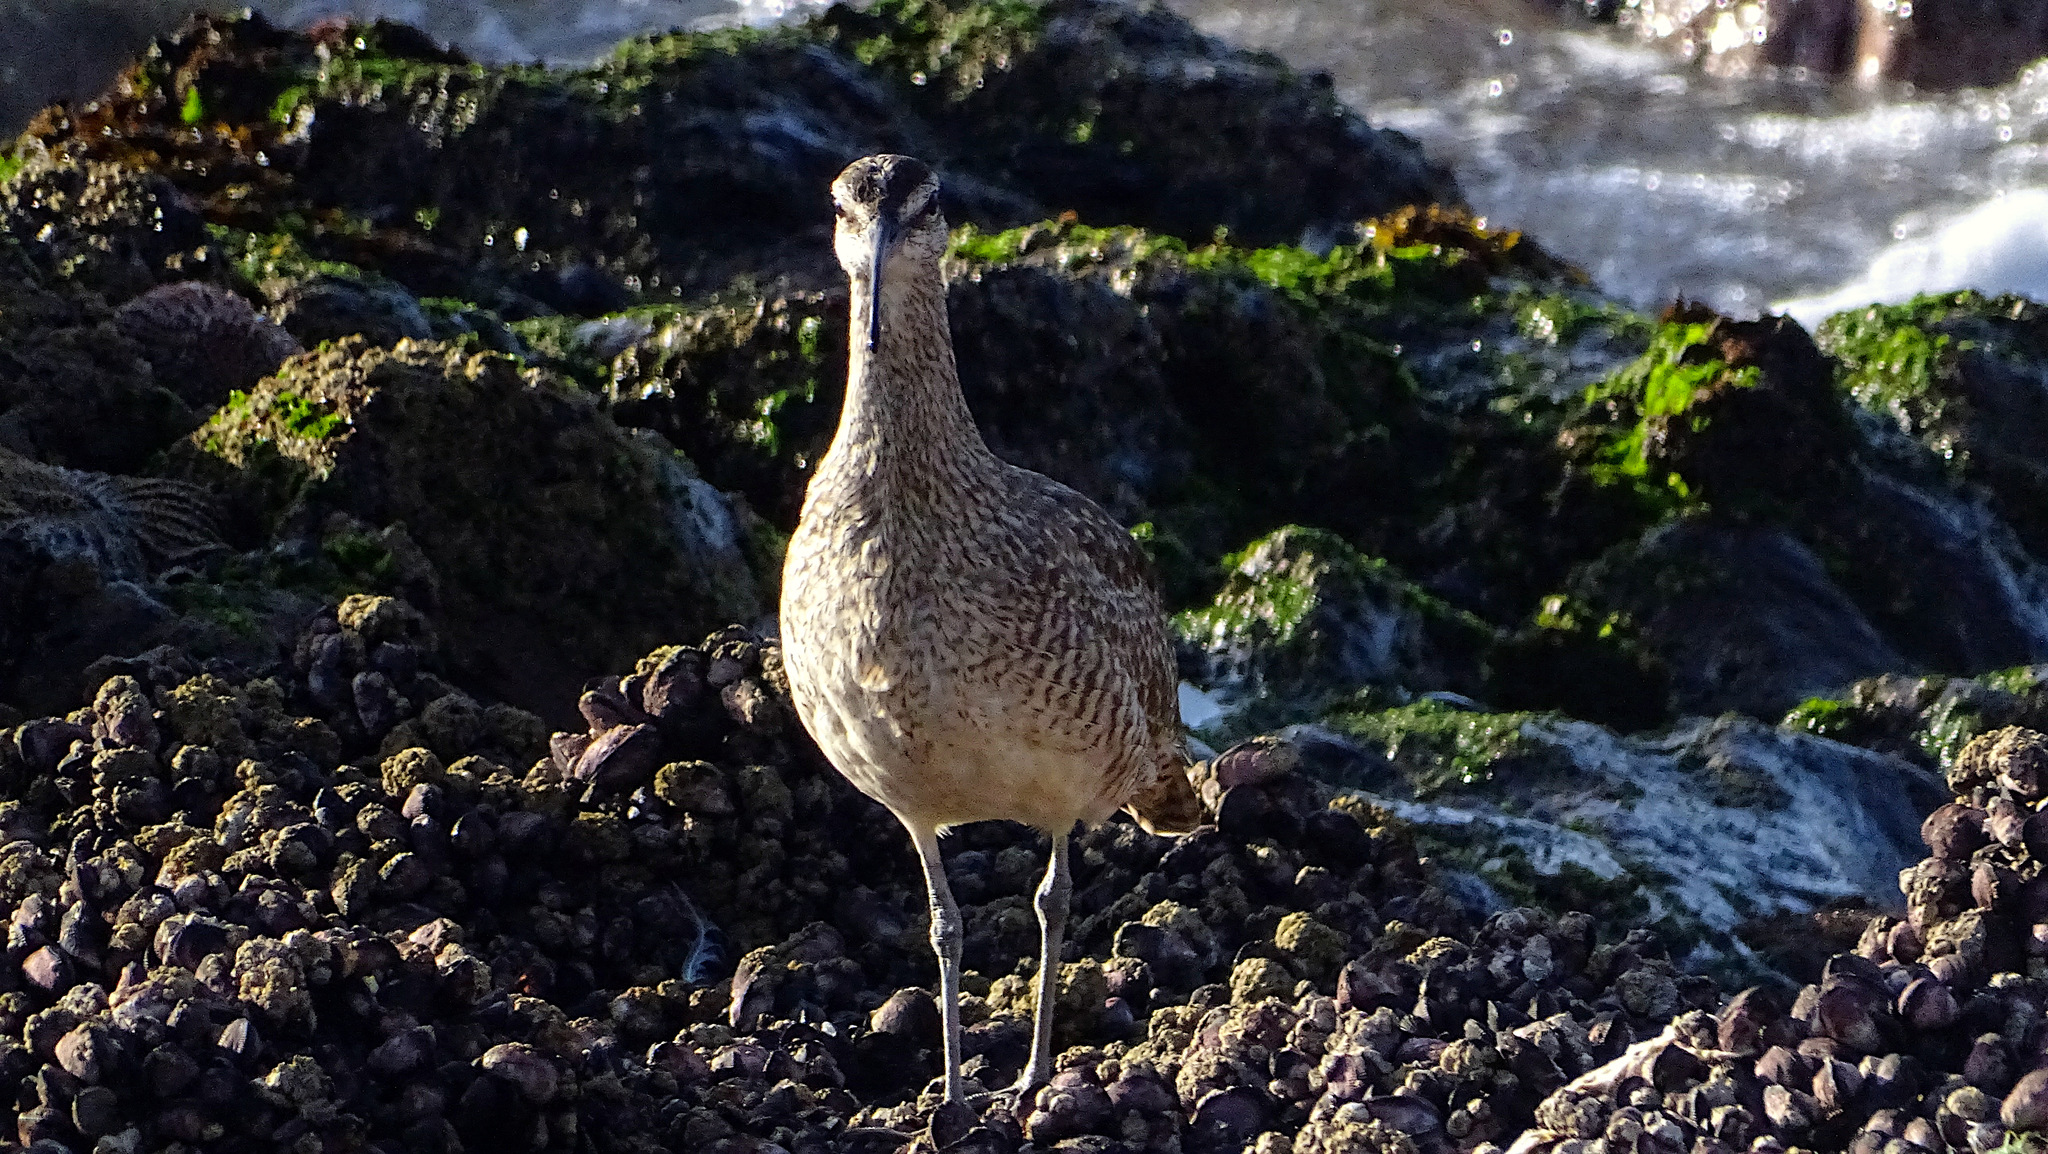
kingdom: Animalia
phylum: Chordata
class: Aves
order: Charadriiformes
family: Scolopacidae
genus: Numenius
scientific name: Numenius phaeopus
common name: Whimbrel
